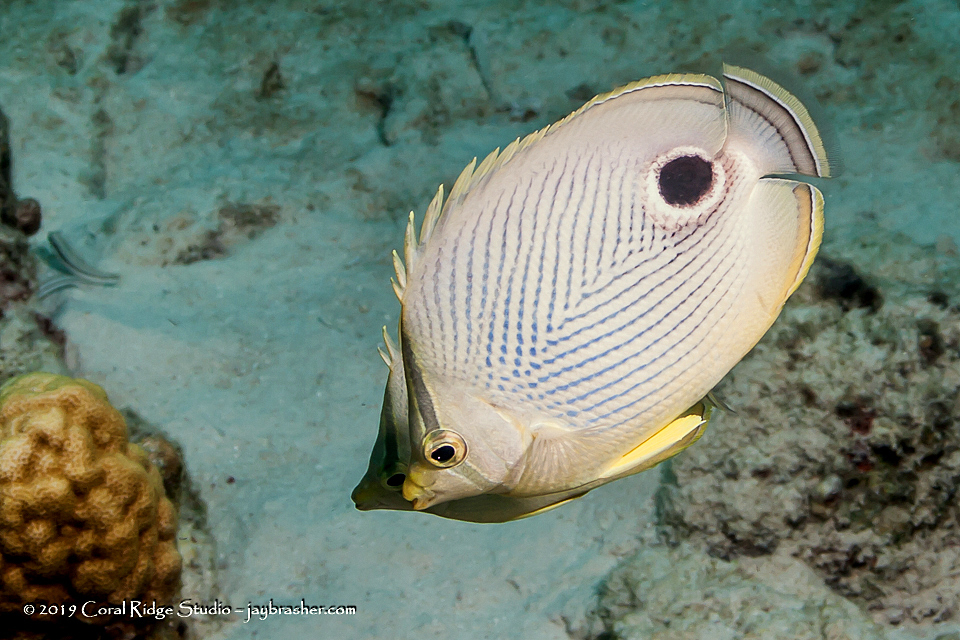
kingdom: Animalia
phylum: Chordata
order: Perciformes
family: Chaetodontidae
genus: Chaetodon
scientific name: Chaetodon capistratus
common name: Kete
